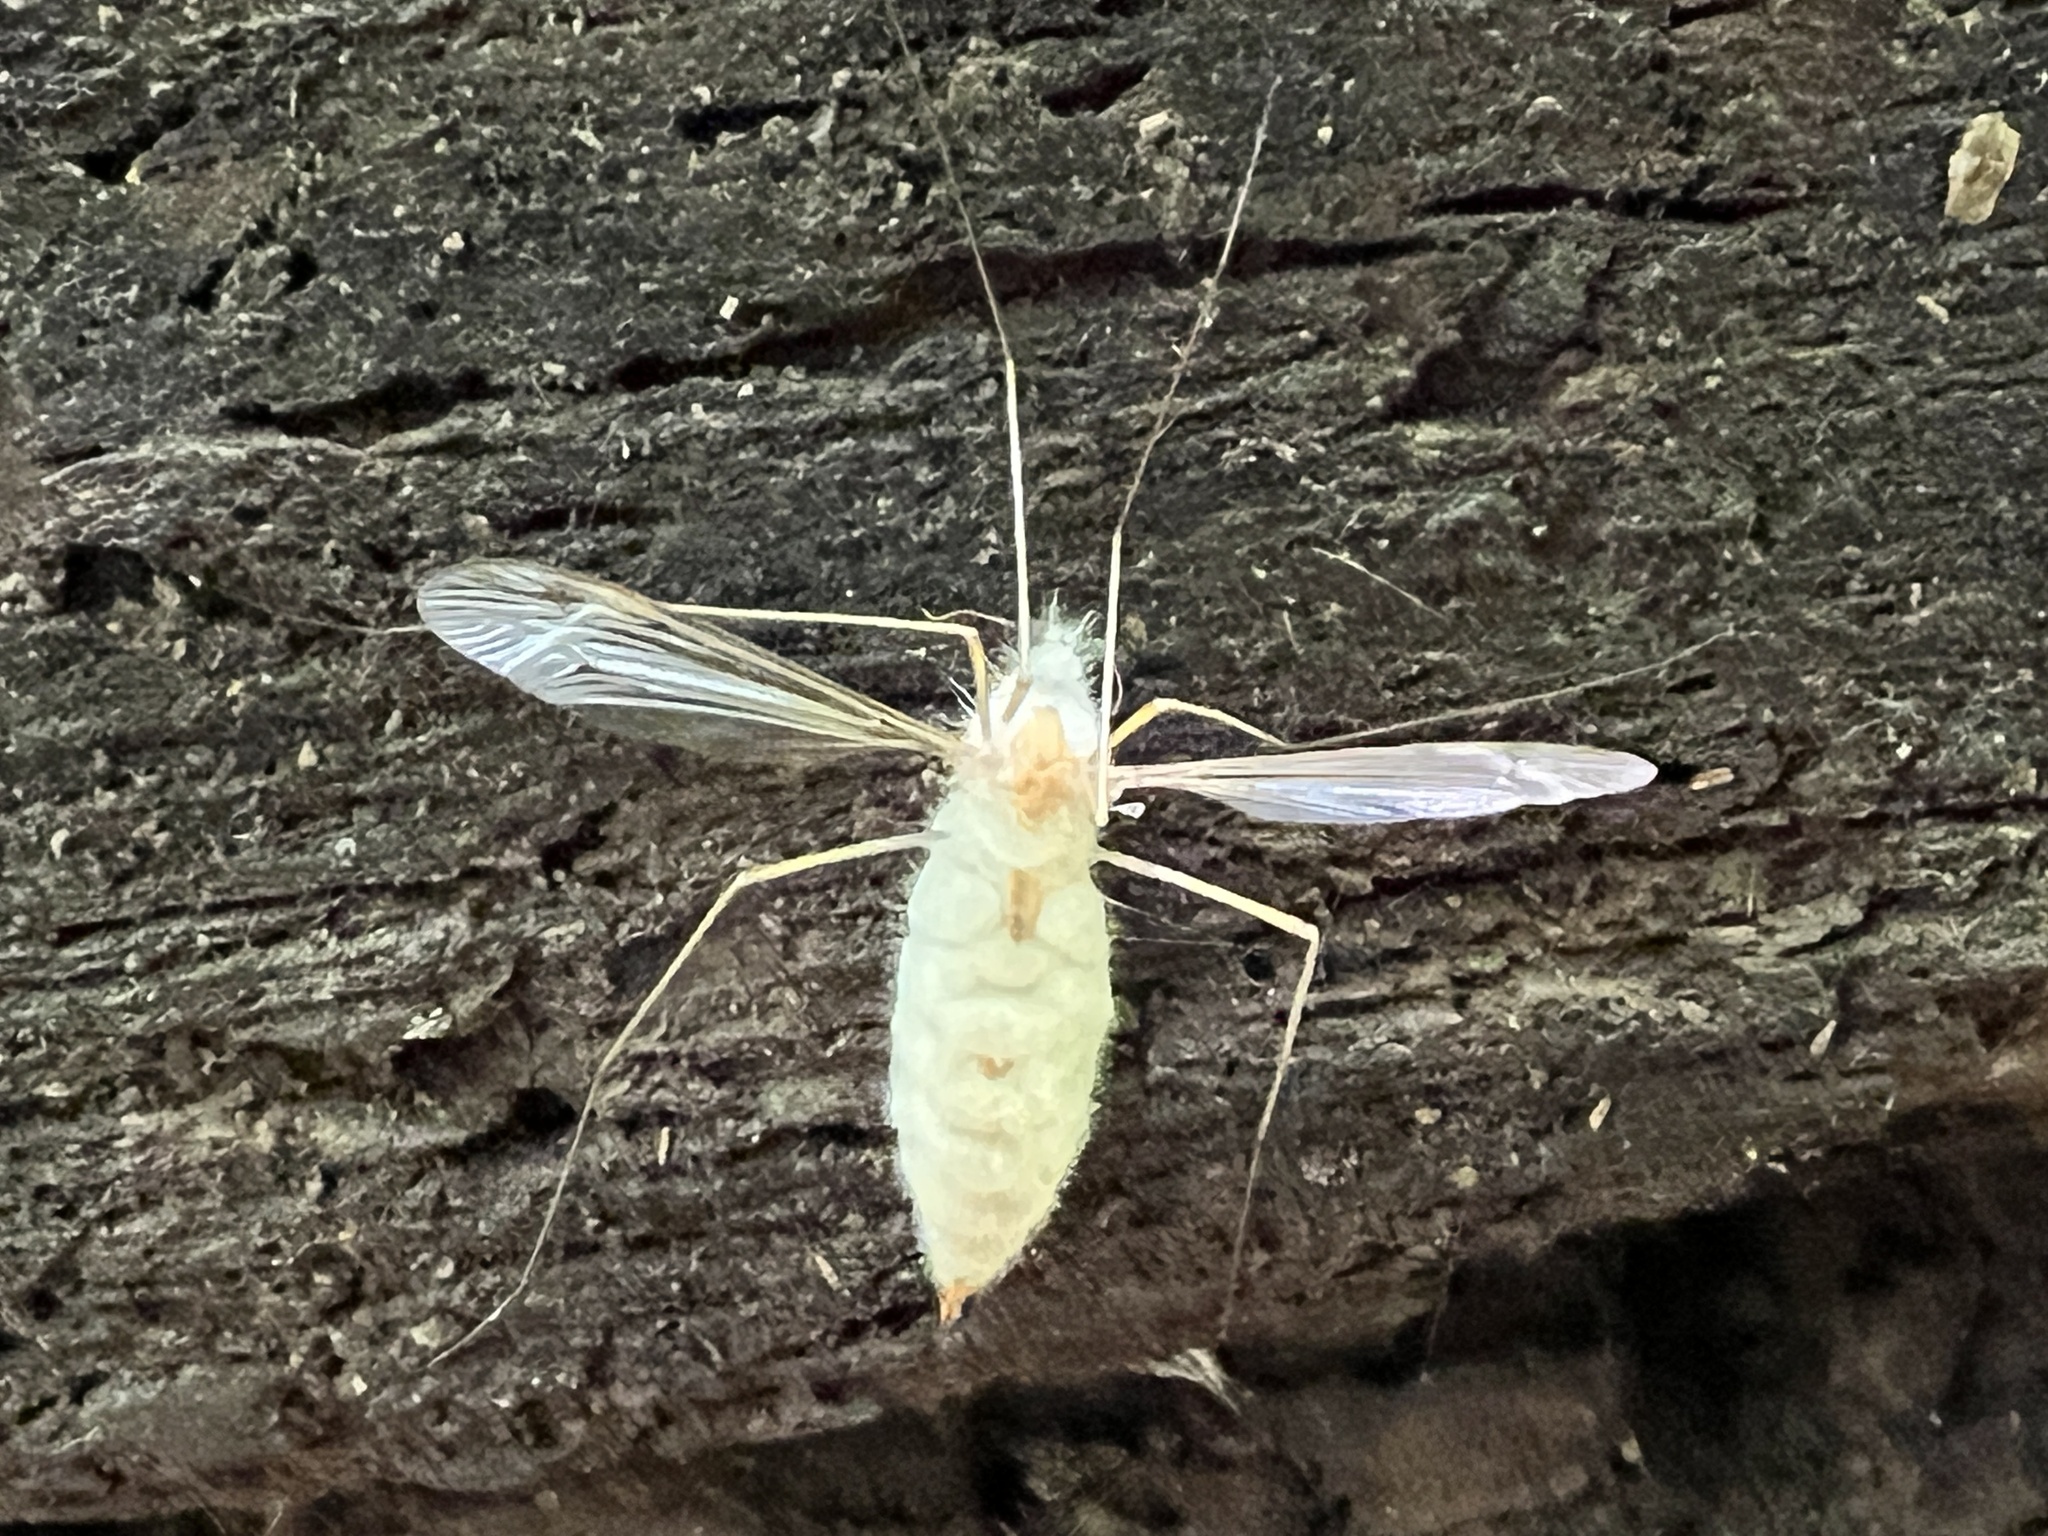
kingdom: Fungi
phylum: Entomophthoromycota
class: Entomophthoromycetes
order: Entomophthorales
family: Entomophthoraceae
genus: Erynia
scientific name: Erynia sepulchralis
